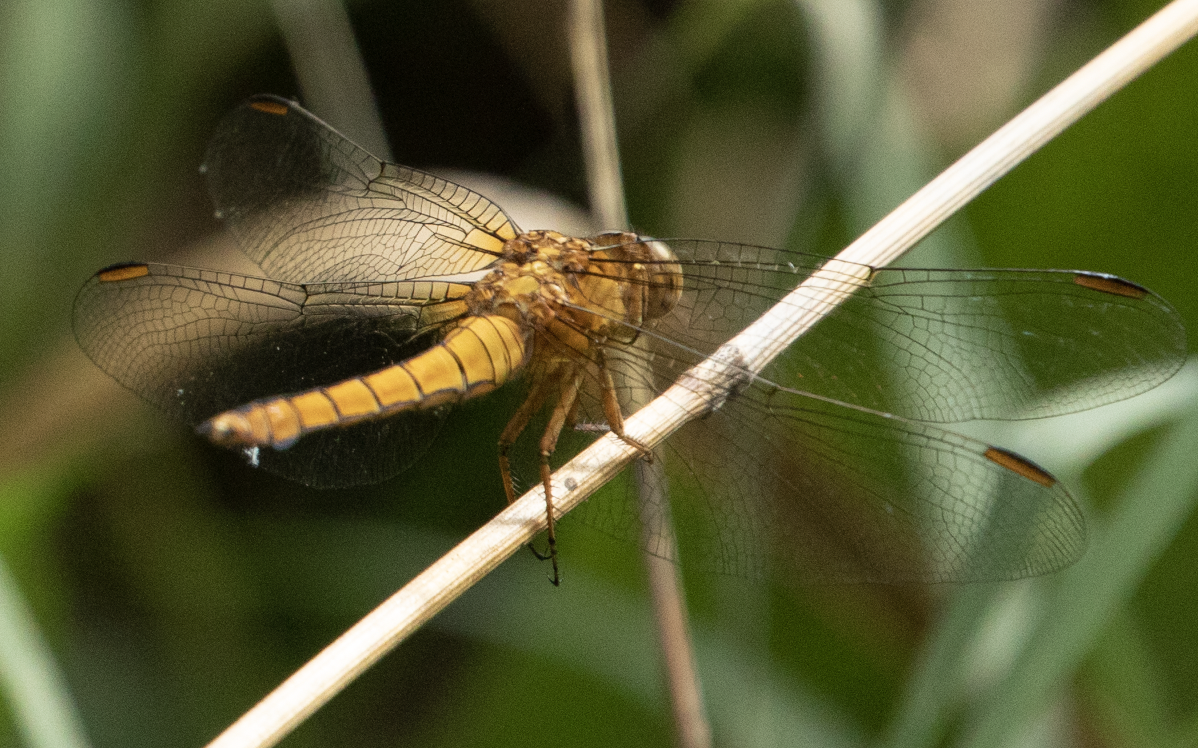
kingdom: Animalia
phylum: Arthropoda
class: Insecta
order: Odonata
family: Libellulidae
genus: Orthetrum
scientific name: Orthetrum coerulescens
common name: Keeled skimmer
